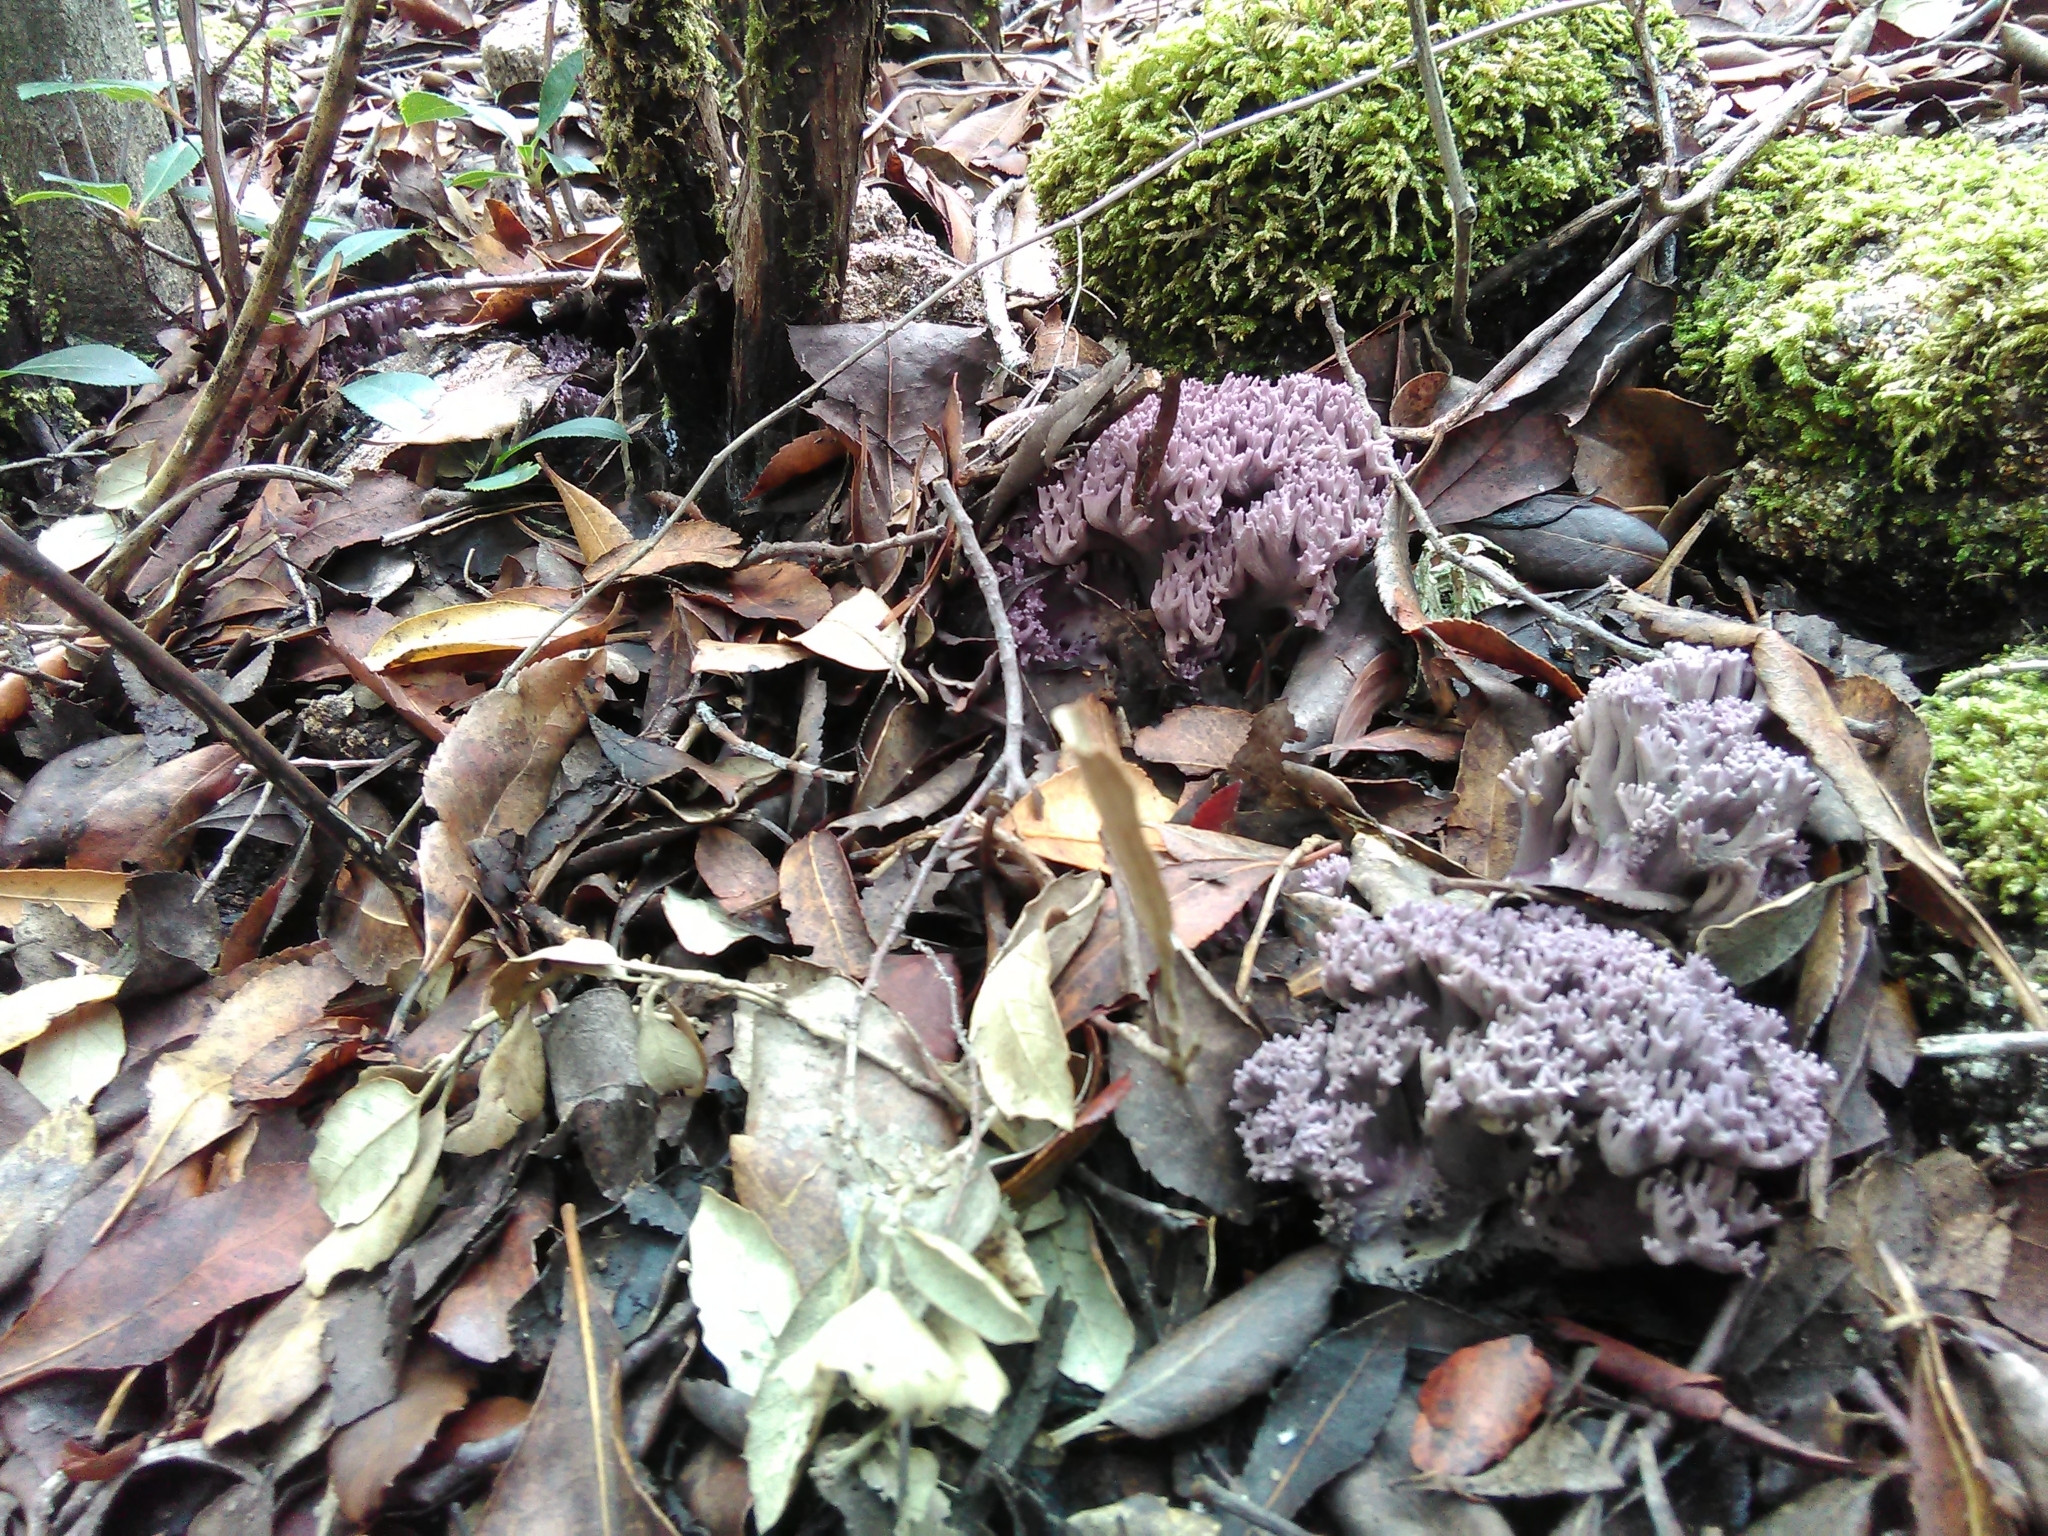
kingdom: Fungi
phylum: Basidiomycota
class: Agaricomycetes
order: Gomphales
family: Gomphaceae
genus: Ramaria
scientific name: Ramaria fennica
